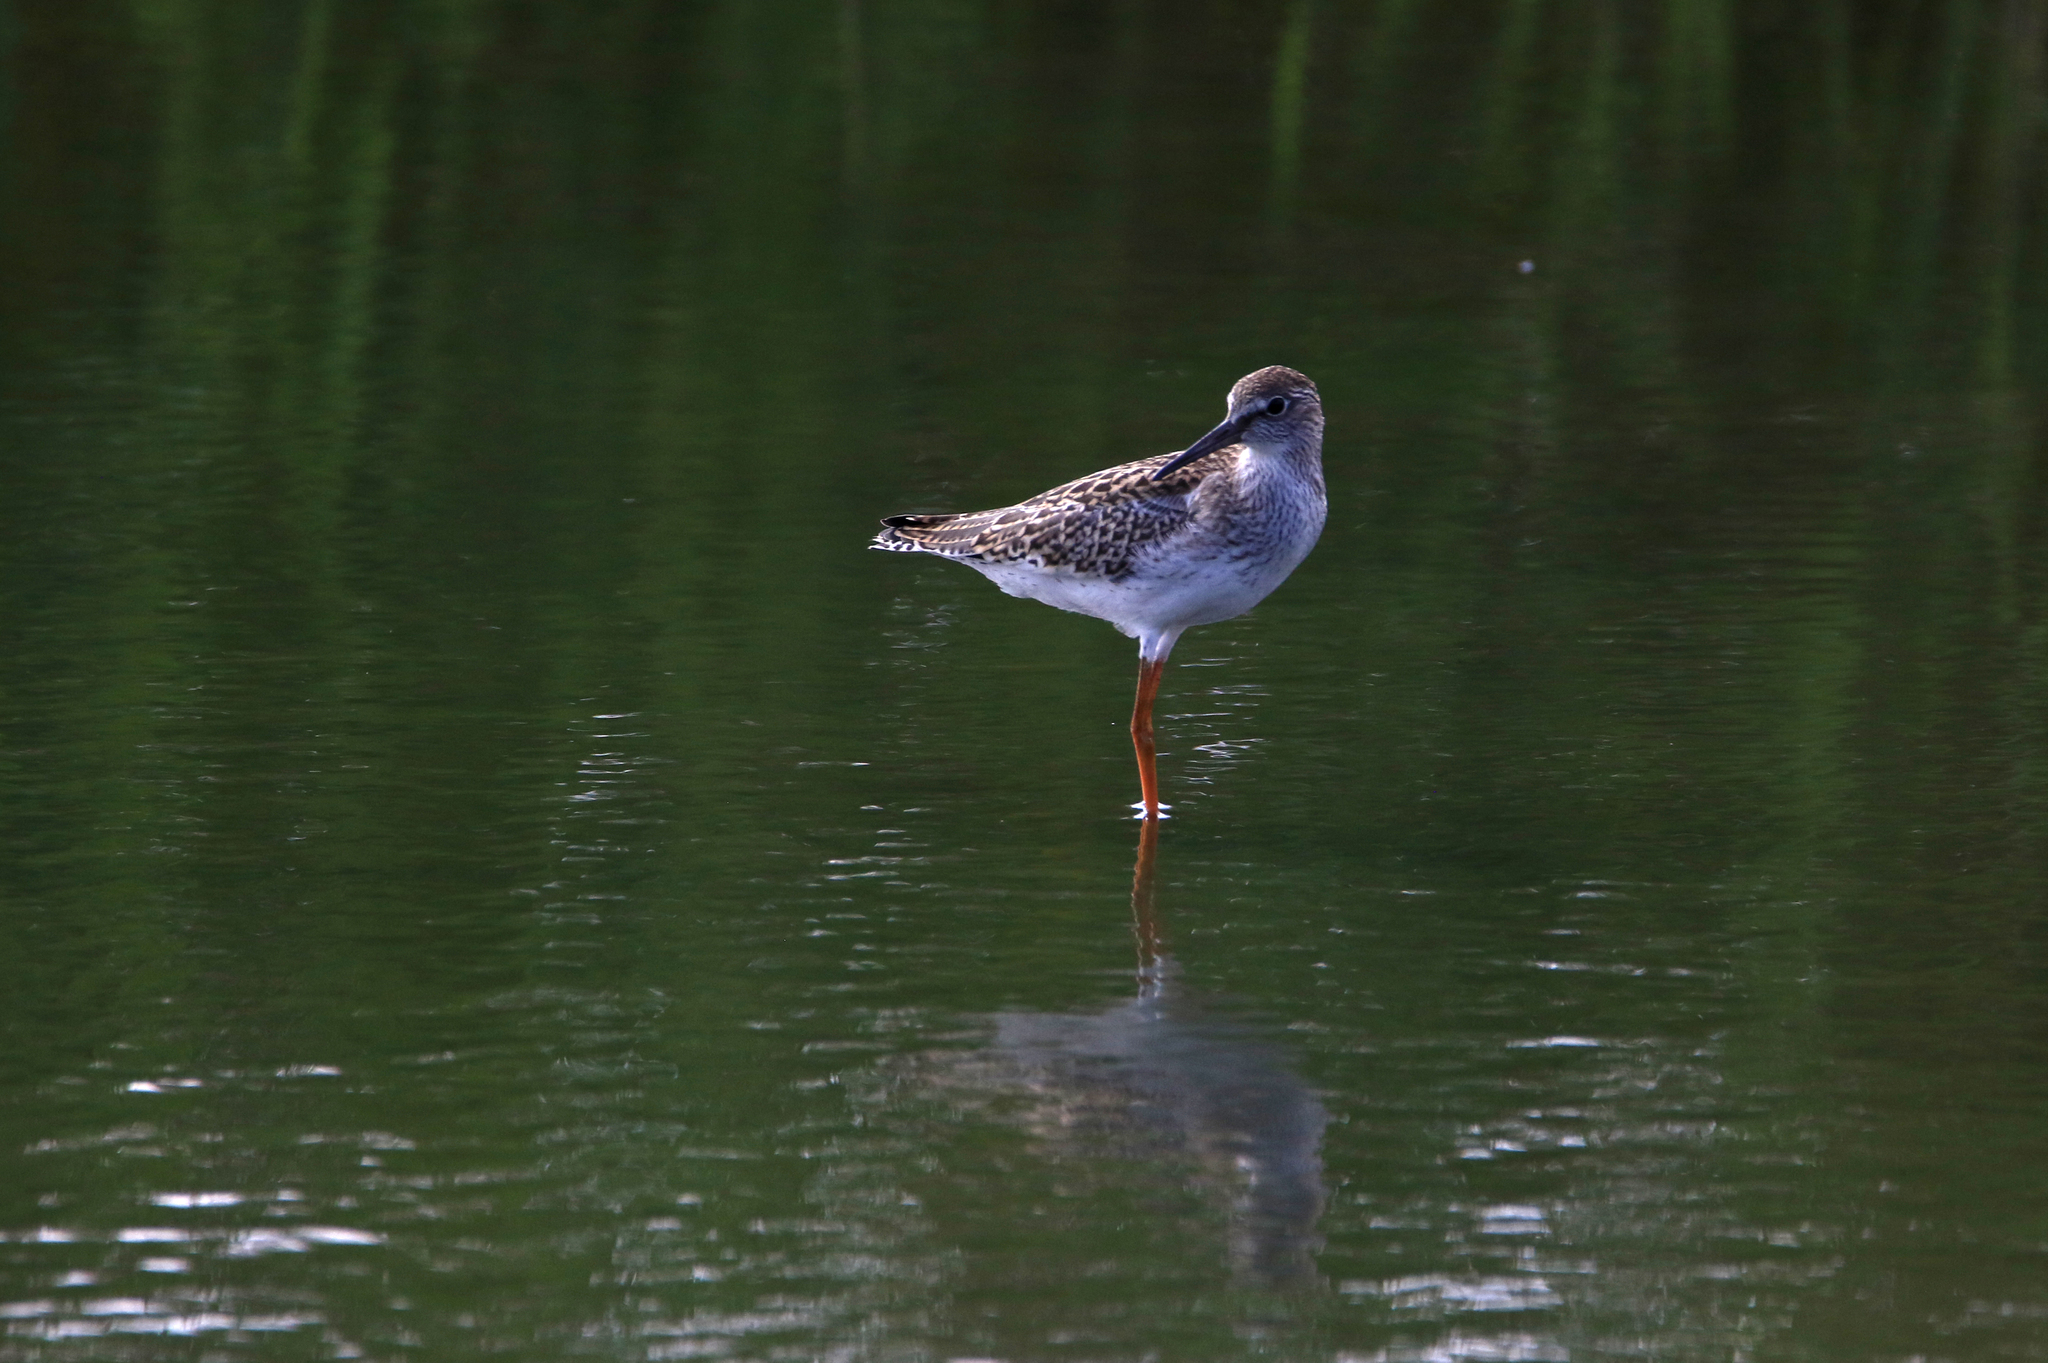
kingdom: Animalia
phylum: Chordata
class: Aves
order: Charadriiformes
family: Scolopacidae
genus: Tringa
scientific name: Tringa totanus
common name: Common redshank
